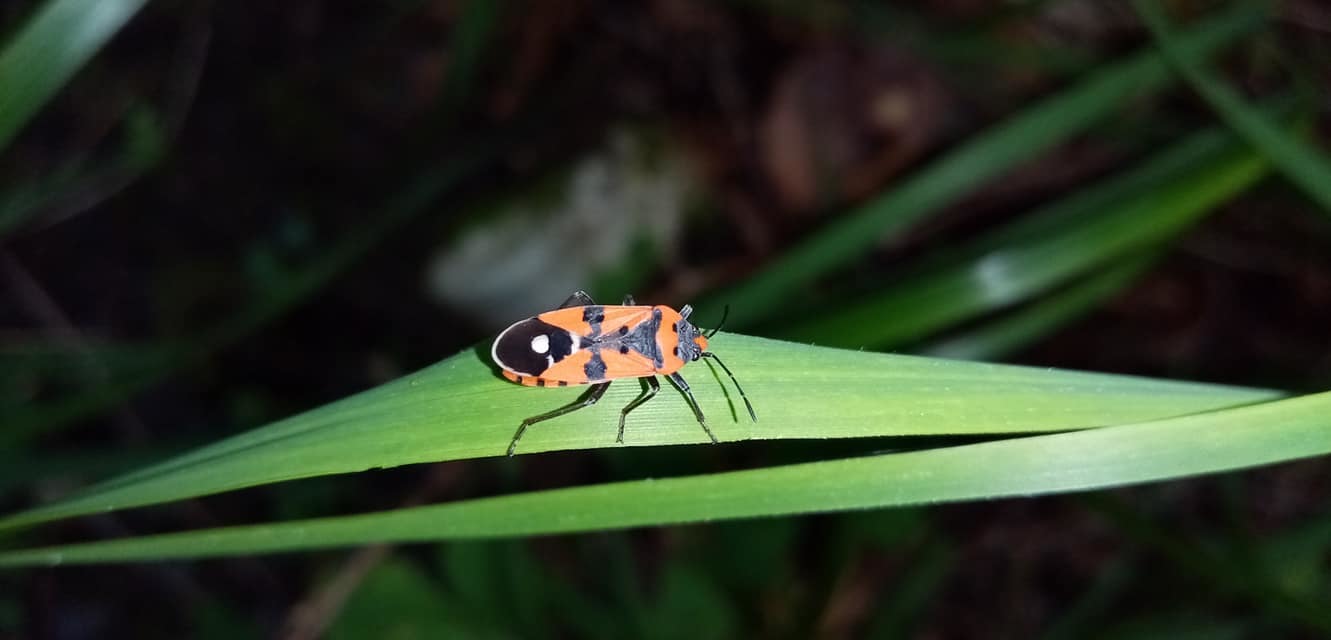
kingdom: Animalia
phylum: Arthropoda
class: Insecta
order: Hemiptera
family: Lygaeidae
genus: Lygaeus
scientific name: Lygaeus equestris
